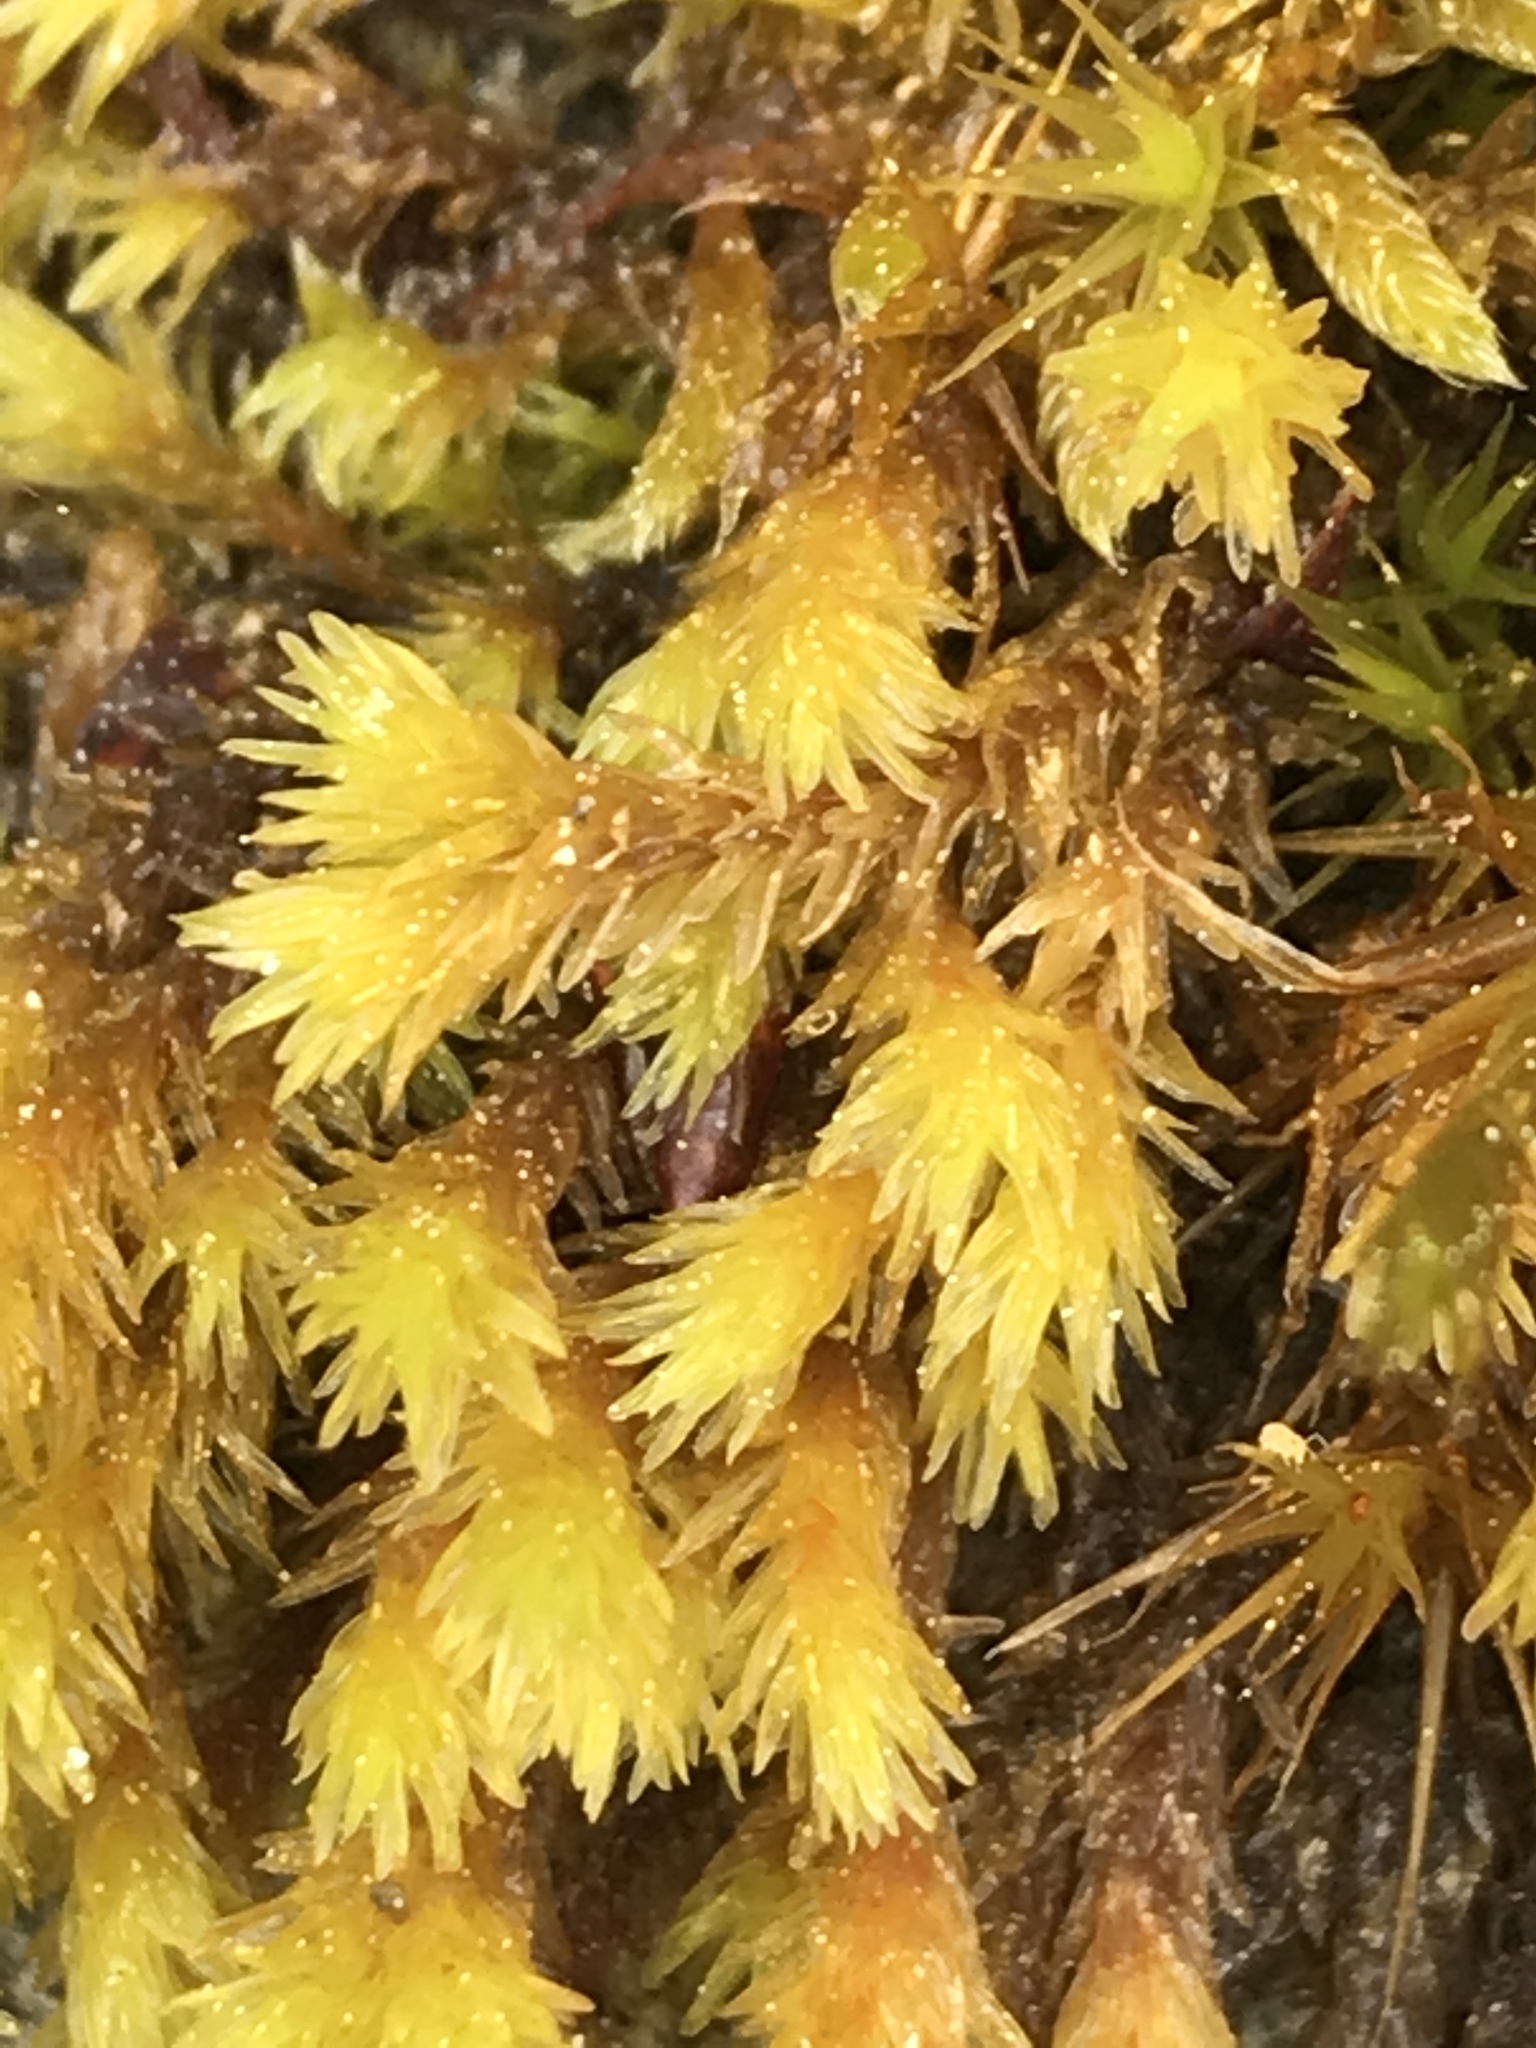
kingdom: Plantae
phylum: Bryophyta
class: Bryopsida
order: Grimmiales
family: Grimmiaceae
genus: Codriophorus
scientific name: Codriophorus aquaticus
